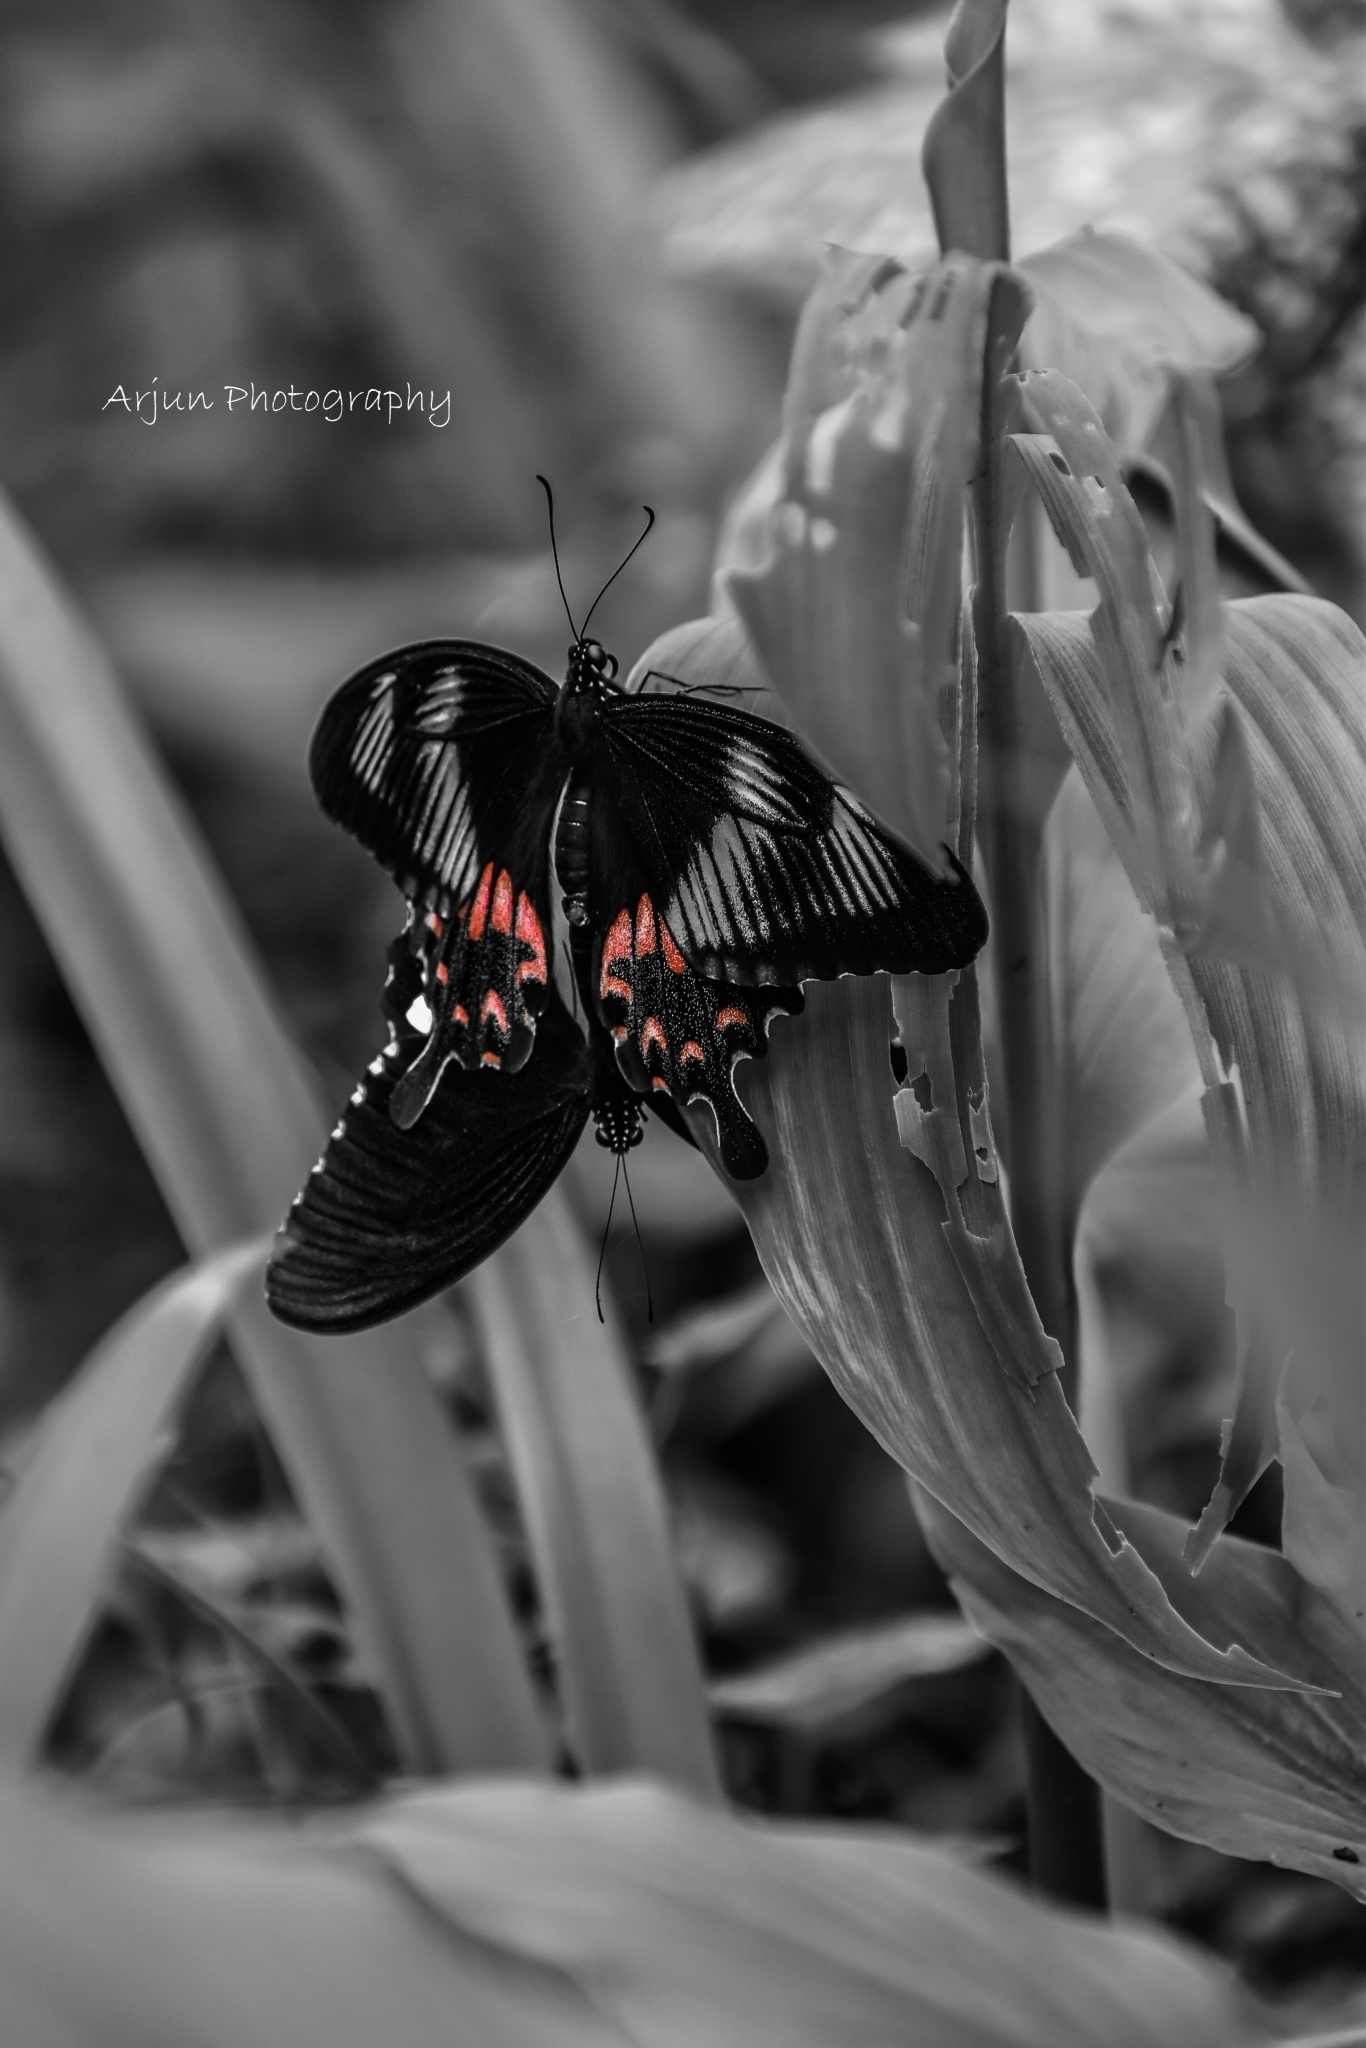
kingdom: Animalia
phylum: Arthropoda
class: Insecta
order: Lepidoptera
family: Papilionidae
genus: Papilio
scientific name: Papilio polytes
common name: Common mormon
